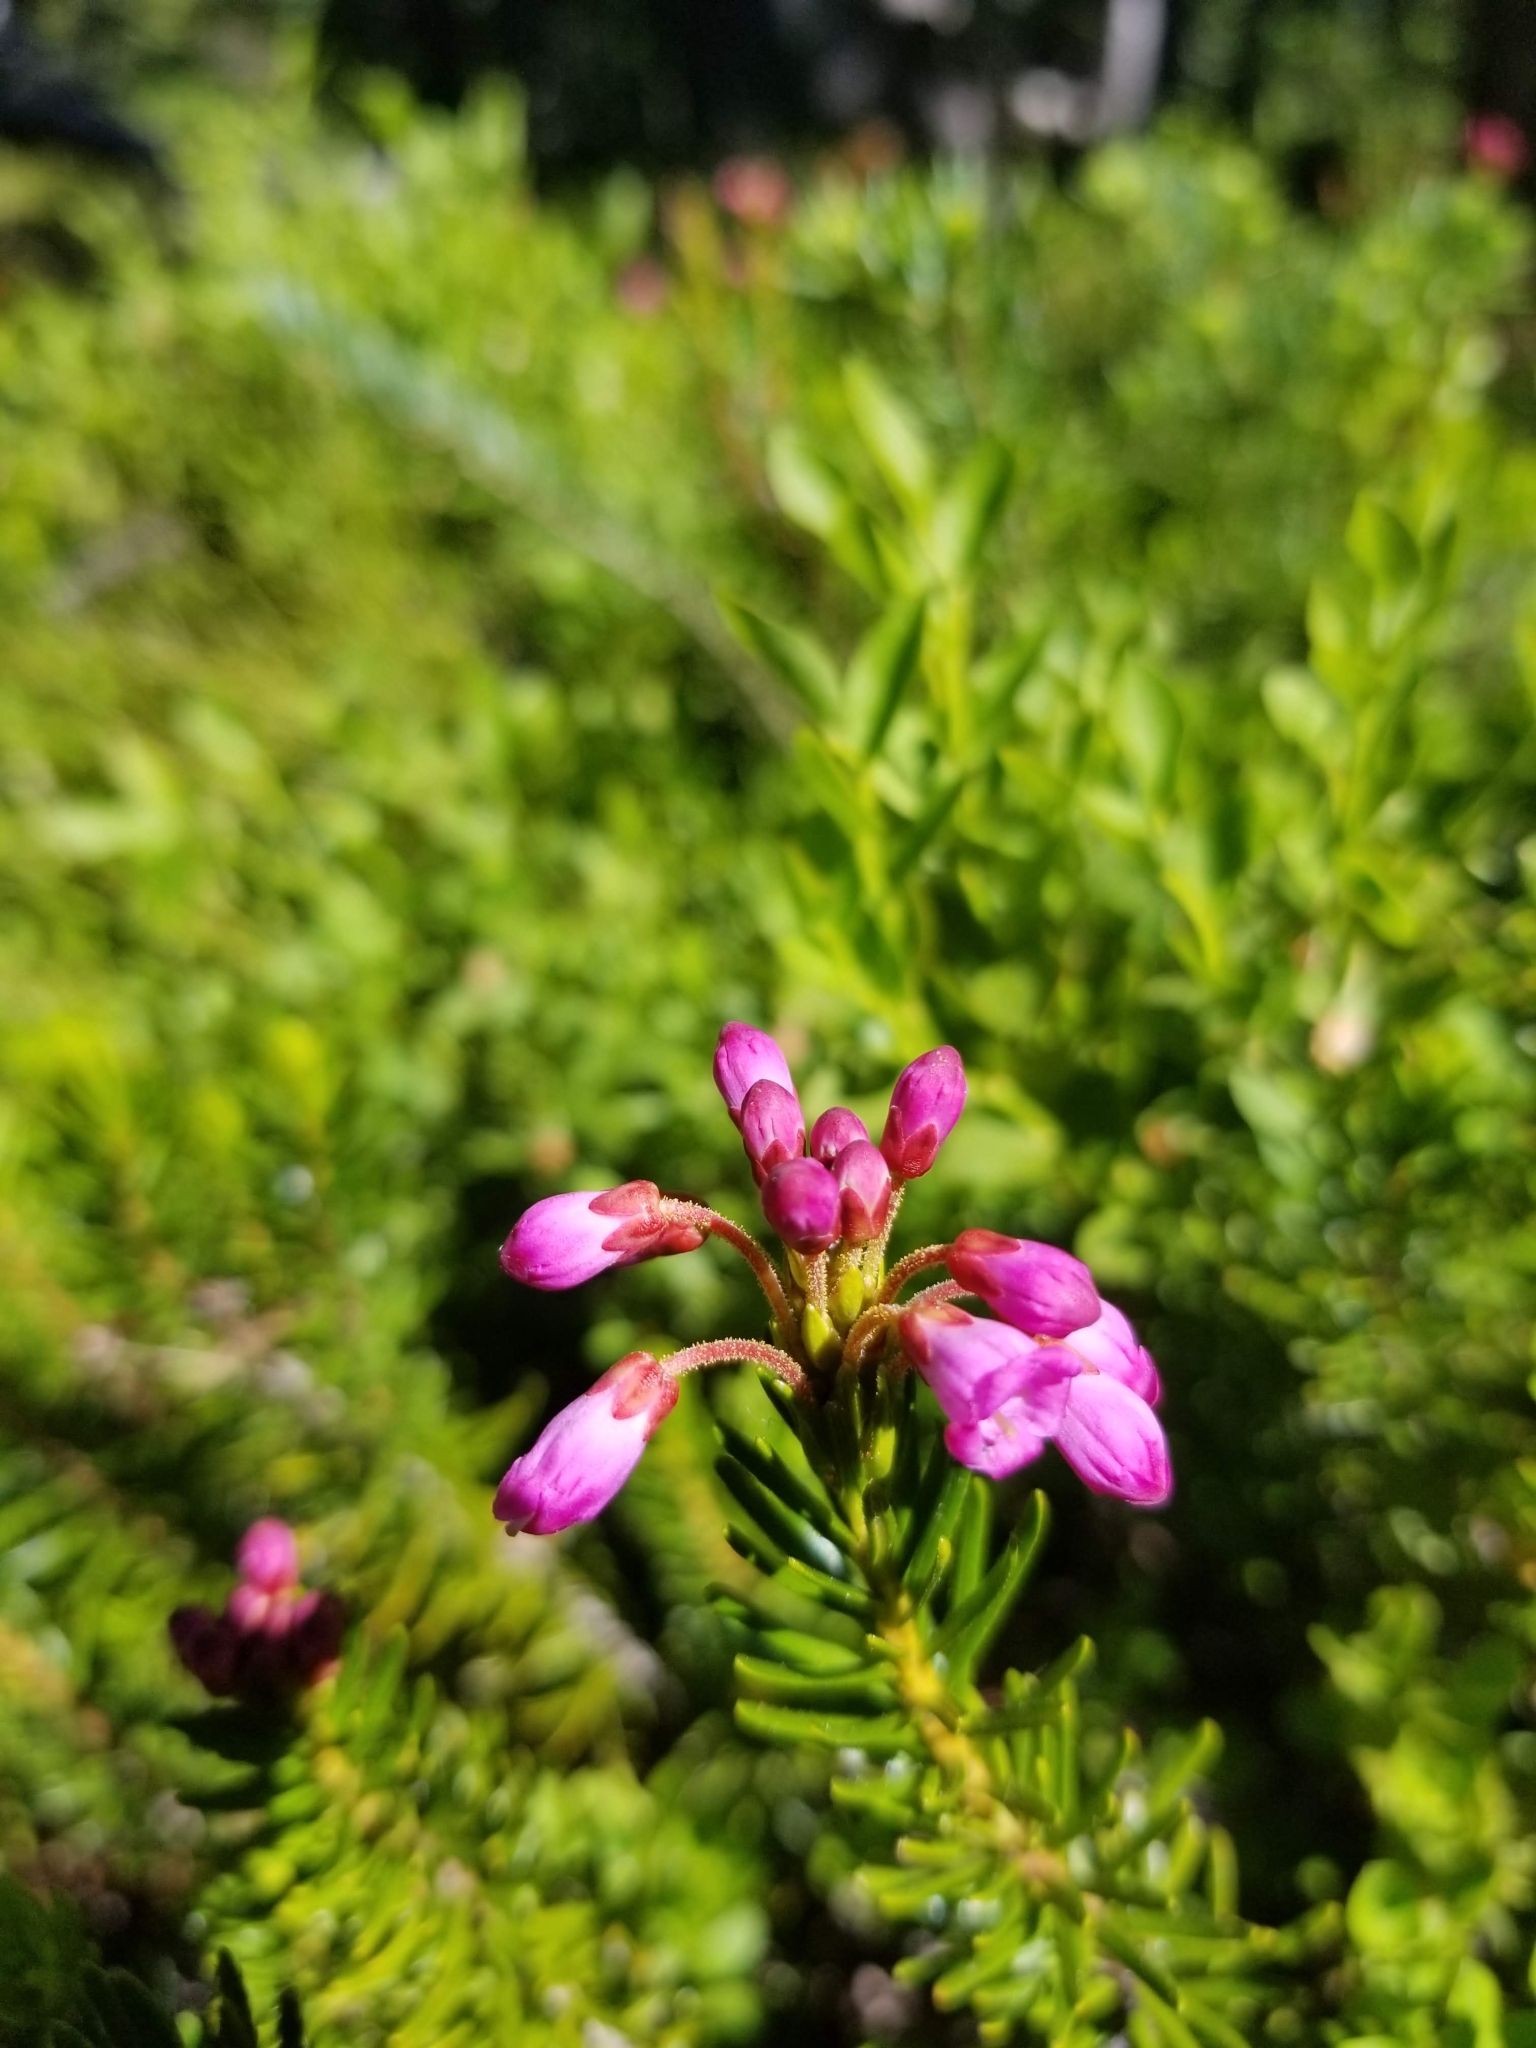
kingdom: Plantae
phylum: Tracheophyta
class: Magnoliopsida
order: Ericales
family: Ericaceae
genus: Phyllodoce
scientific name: Phyllodoce empetriformis
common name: Pink mountain heather
